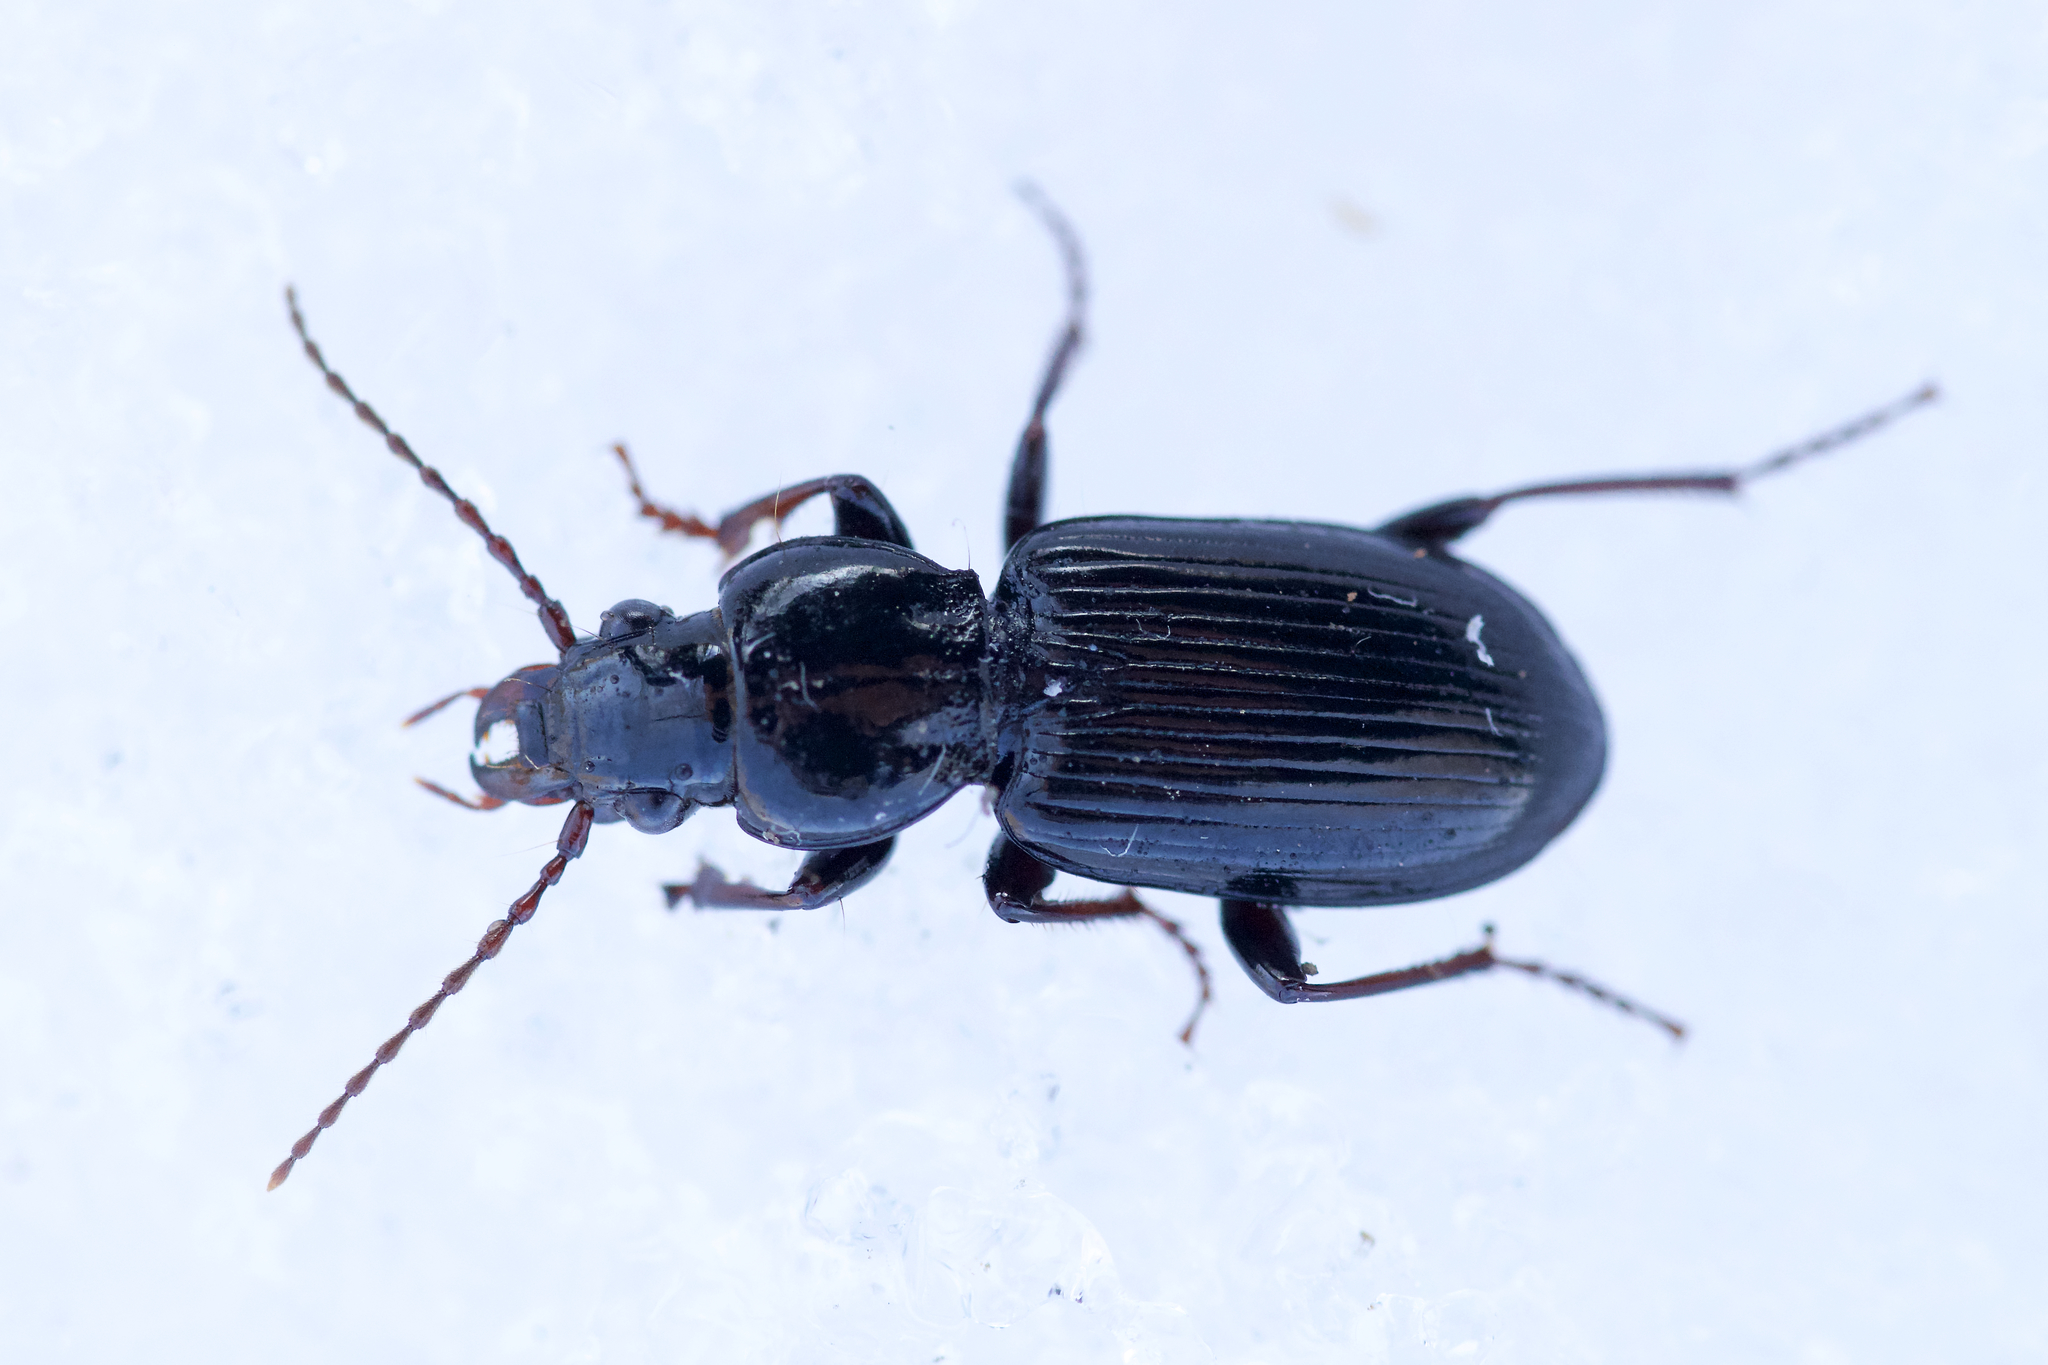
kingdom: Animalia
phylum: Arthropoda
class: Insecta
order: Coleoptera
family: Carabidae
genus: Pterostichus
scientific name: Pterostichus caudicalis
